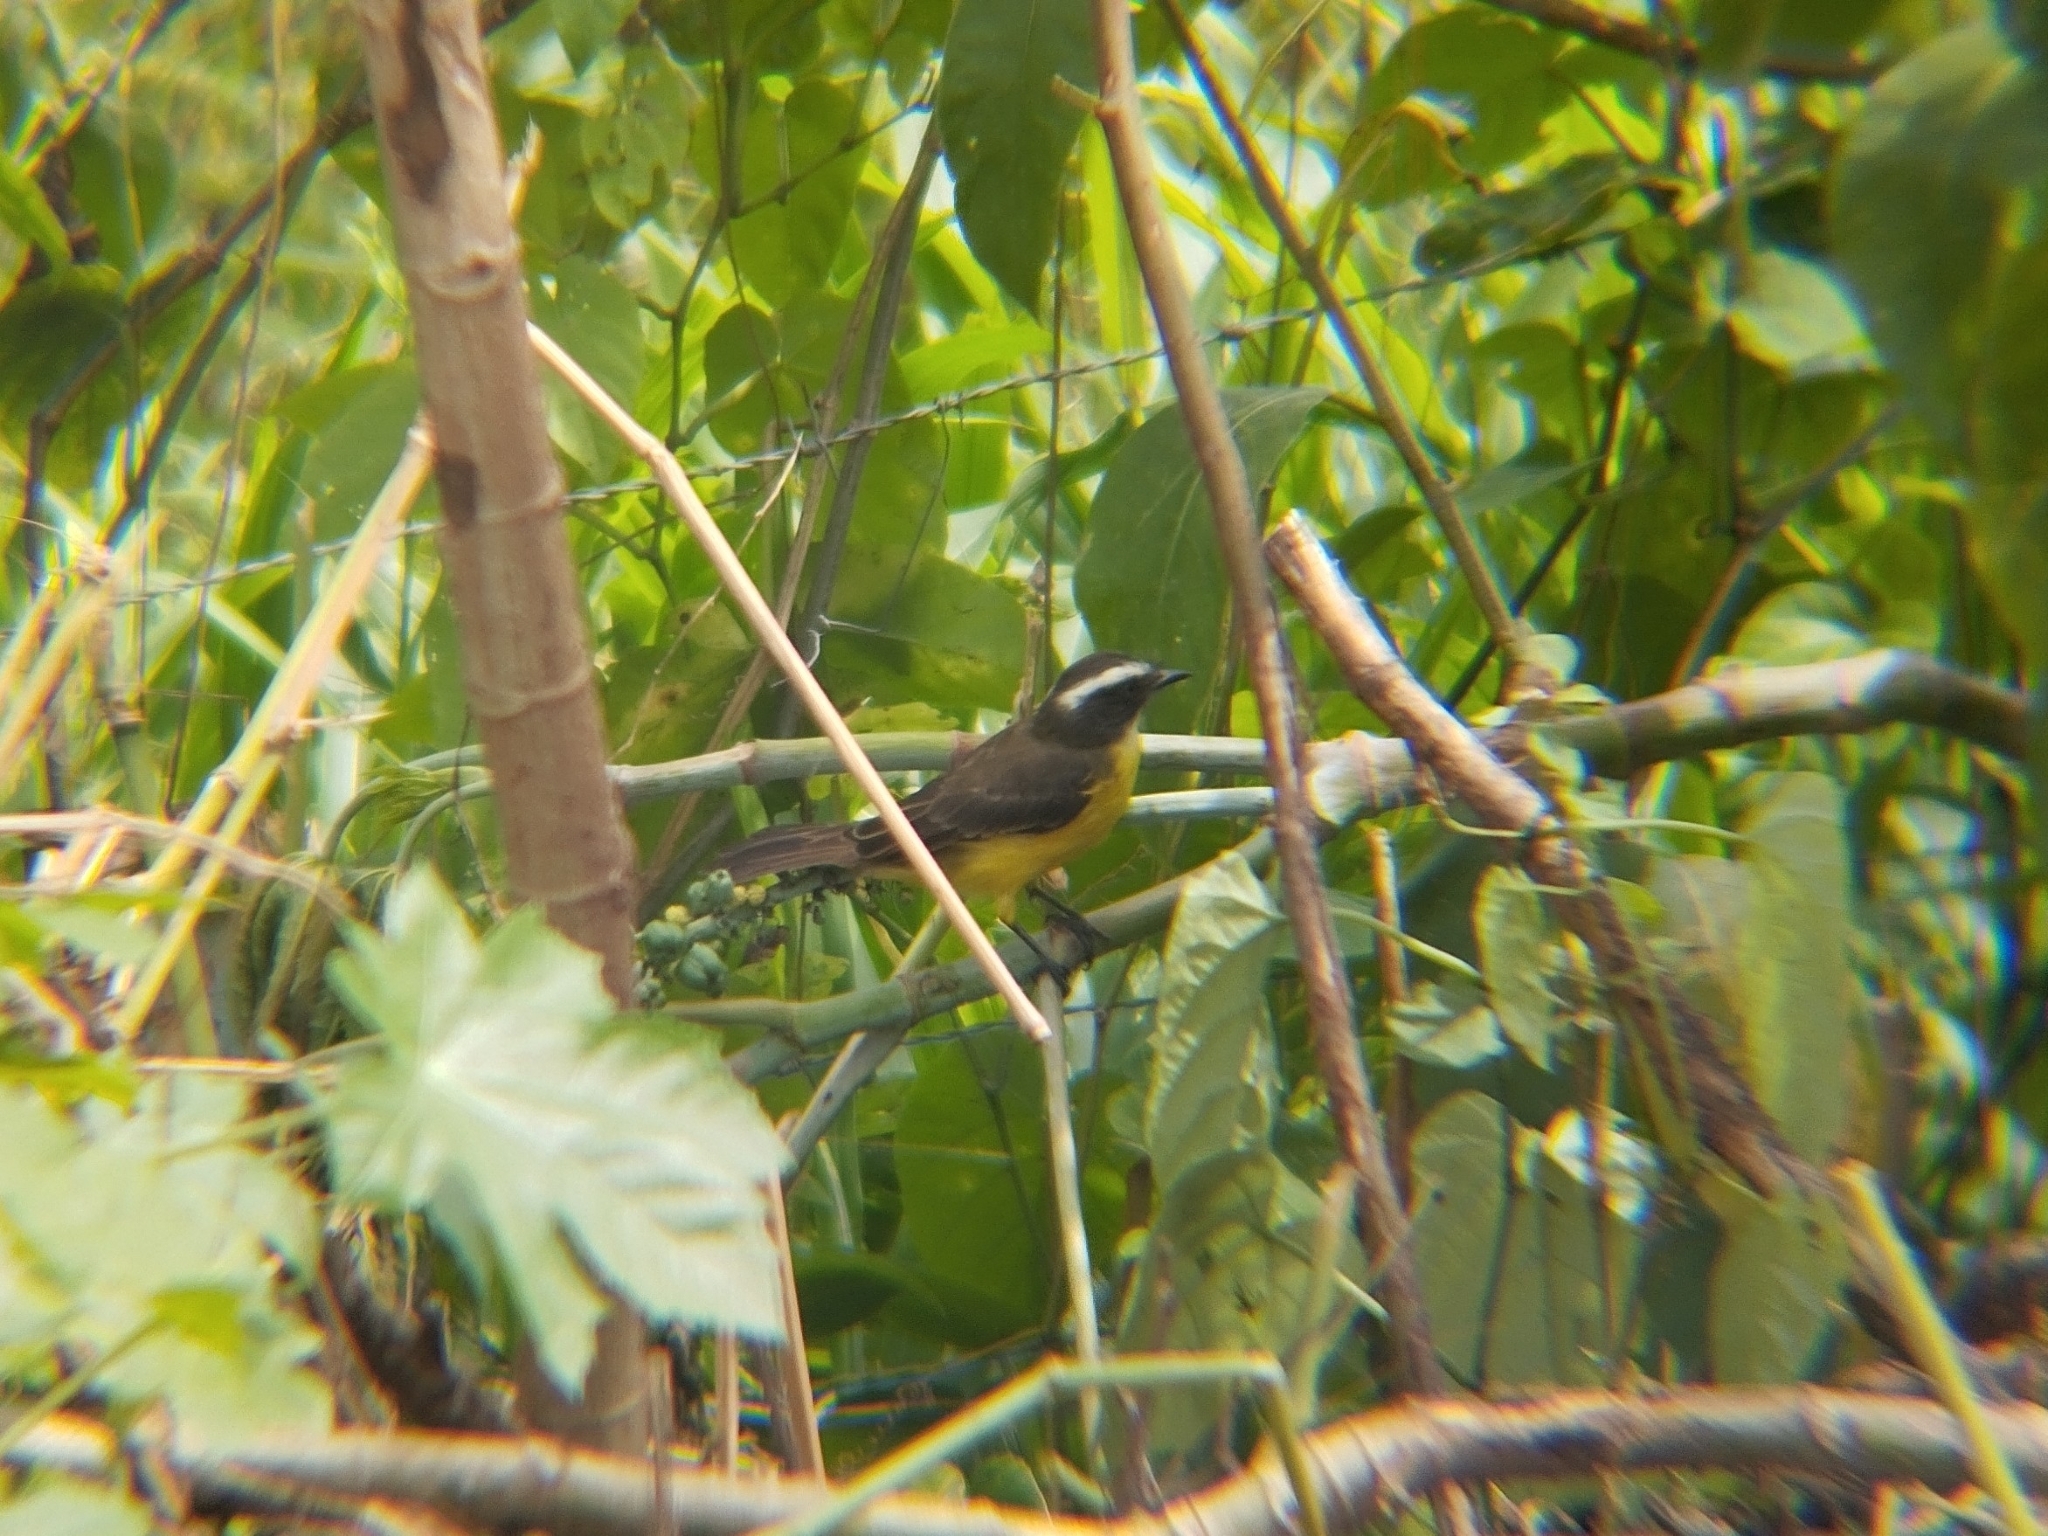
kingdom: Animalia
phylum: Chordata
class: Aves
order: Passeriformes
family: Tyrannidae
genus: Myiozetetes
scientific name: Myiozetetes similis
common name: Social flycatcher
